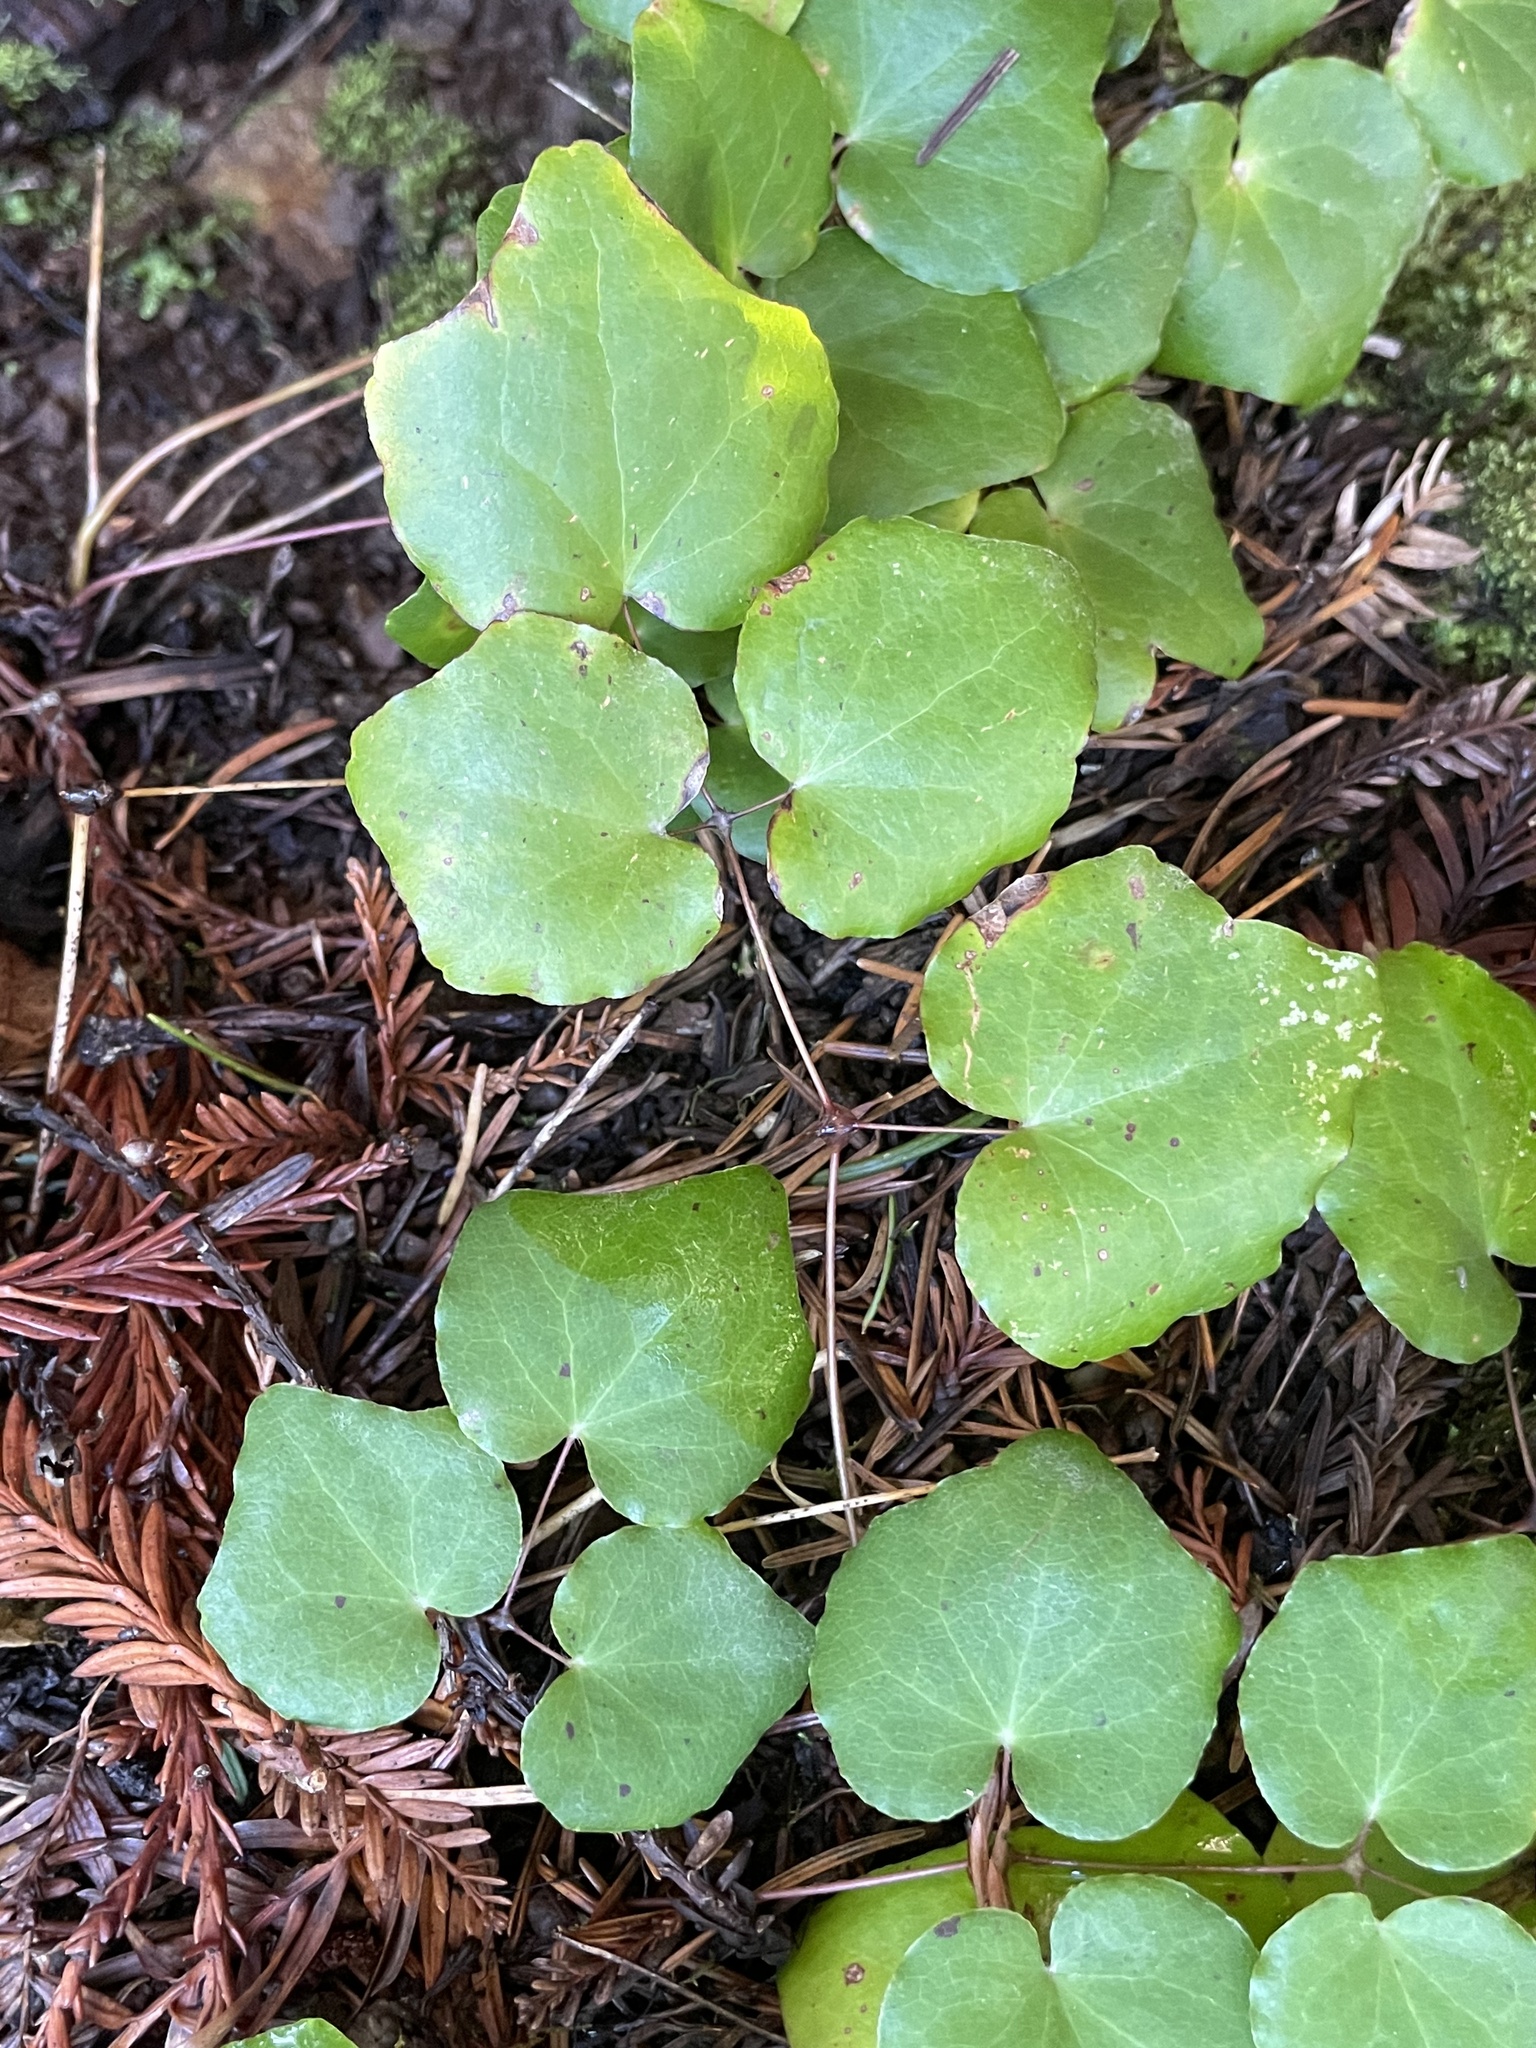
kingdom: Plantae
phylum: Tracheophyta
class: Magnoliopsida
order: Ranunculales
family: Berberidaceae
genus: Vancouveria
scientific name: Vancouveria planipetala
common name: Redwood-ivy
